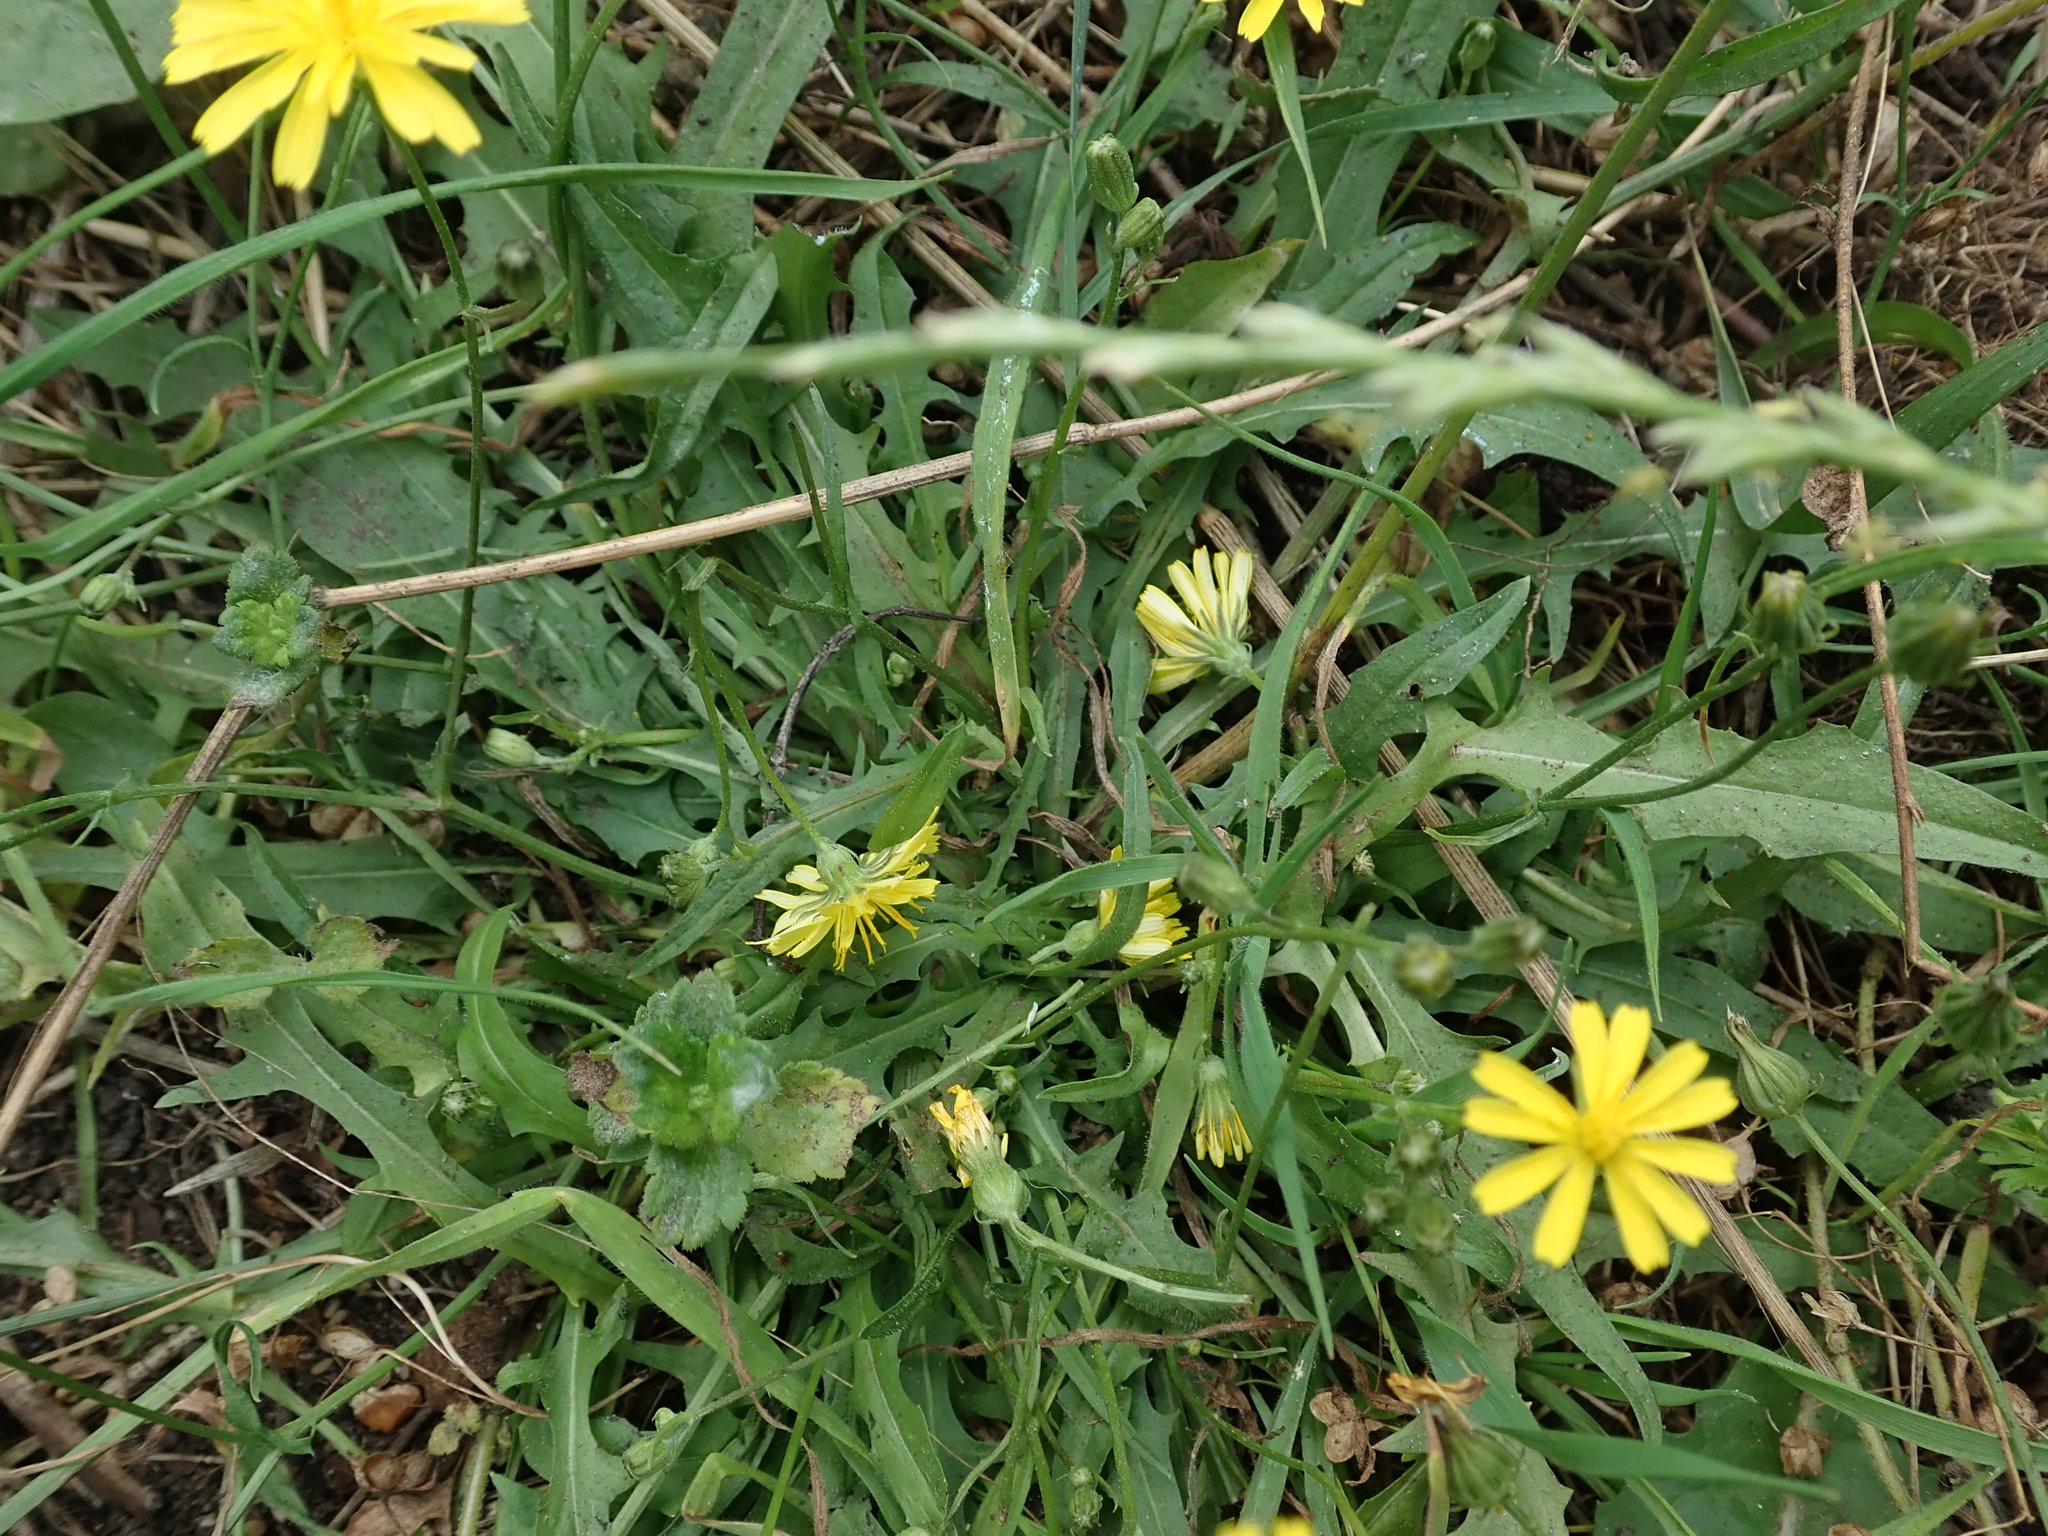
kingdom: Plantae
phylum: Tracheophyta
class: Magnoliopsida
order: Asterales
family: Asteraceae
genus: Crepis
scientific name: Crepis capillaris
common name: Smooth hawksbeard
